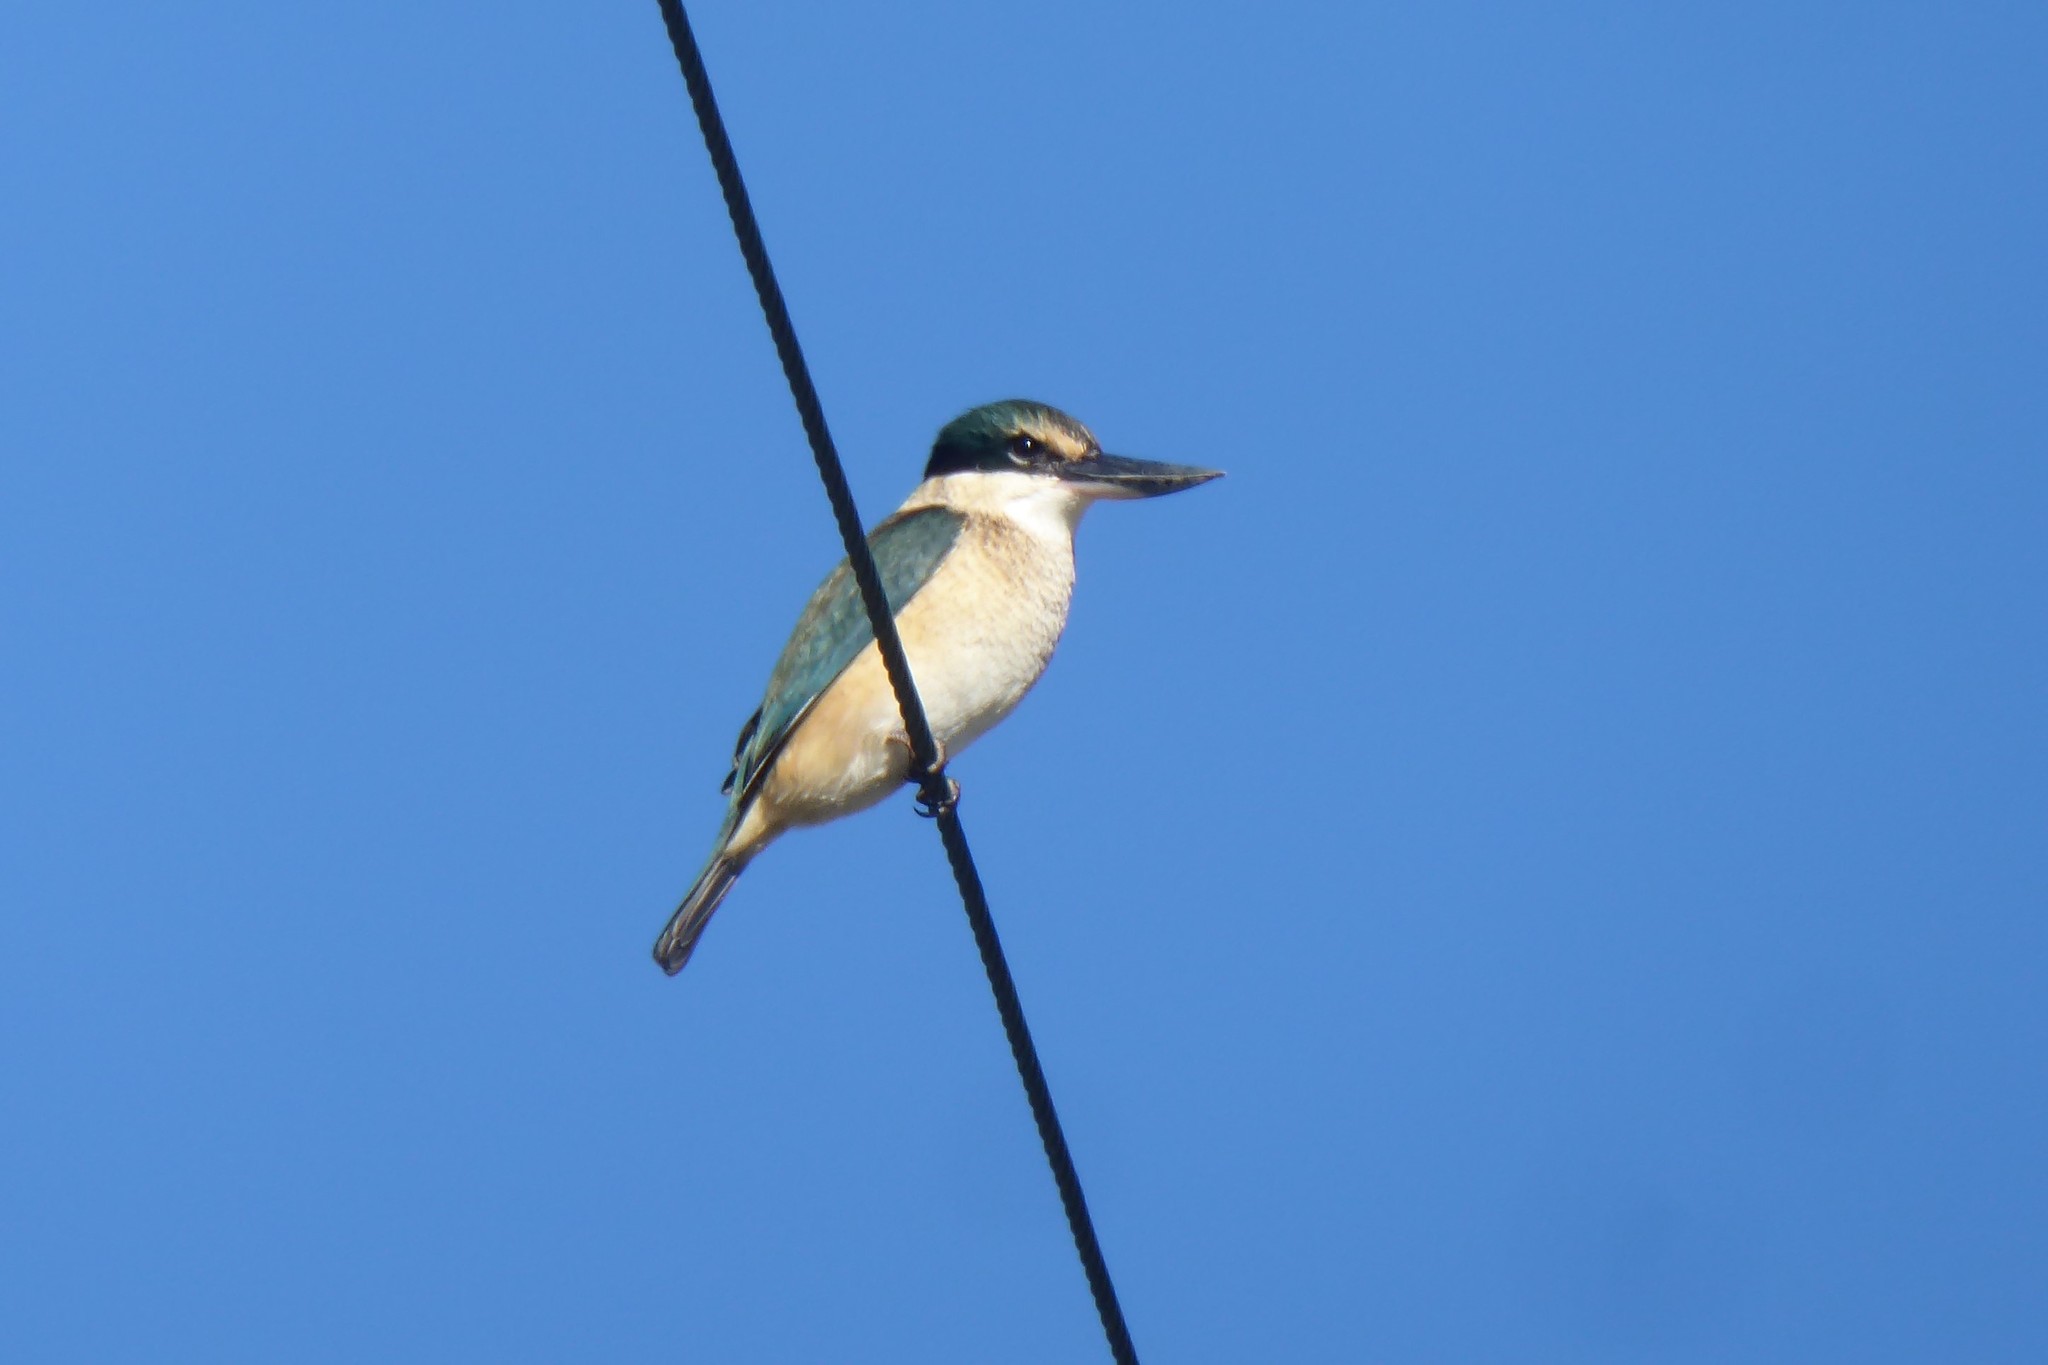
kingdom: Animalia
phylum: Chordata
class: Aves
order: Coraciiformes
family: Alcedinidae
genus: Todiramphus
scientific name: Todiramphus sanctus
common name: Sacred kingfisher
